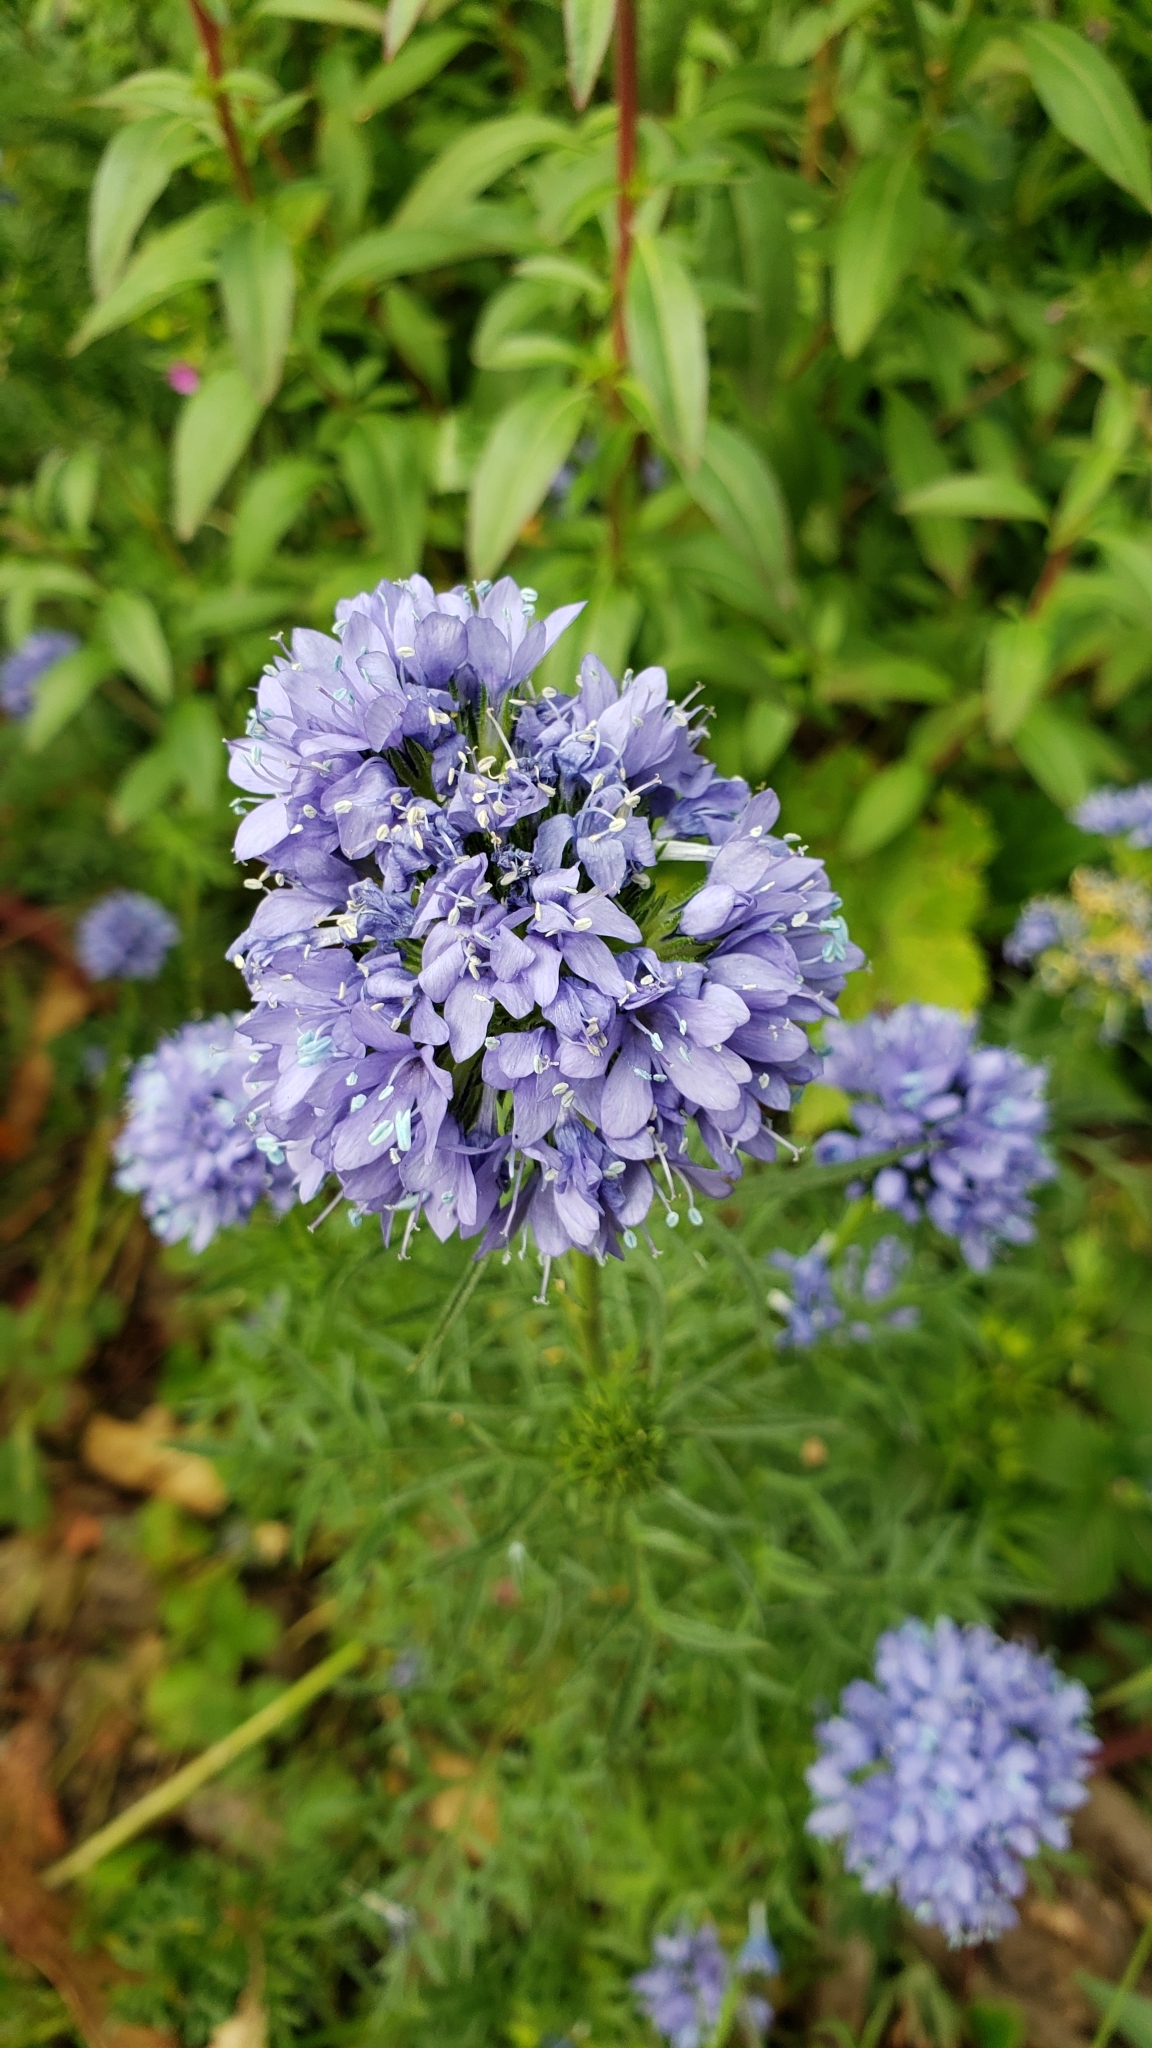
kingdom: Plantae
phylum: Tracheophyta
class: Magnoliopsida
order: Ericales
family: Polemoniaceae
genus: Gilia
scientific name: Gilia capitata
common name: Bluehead gilia
